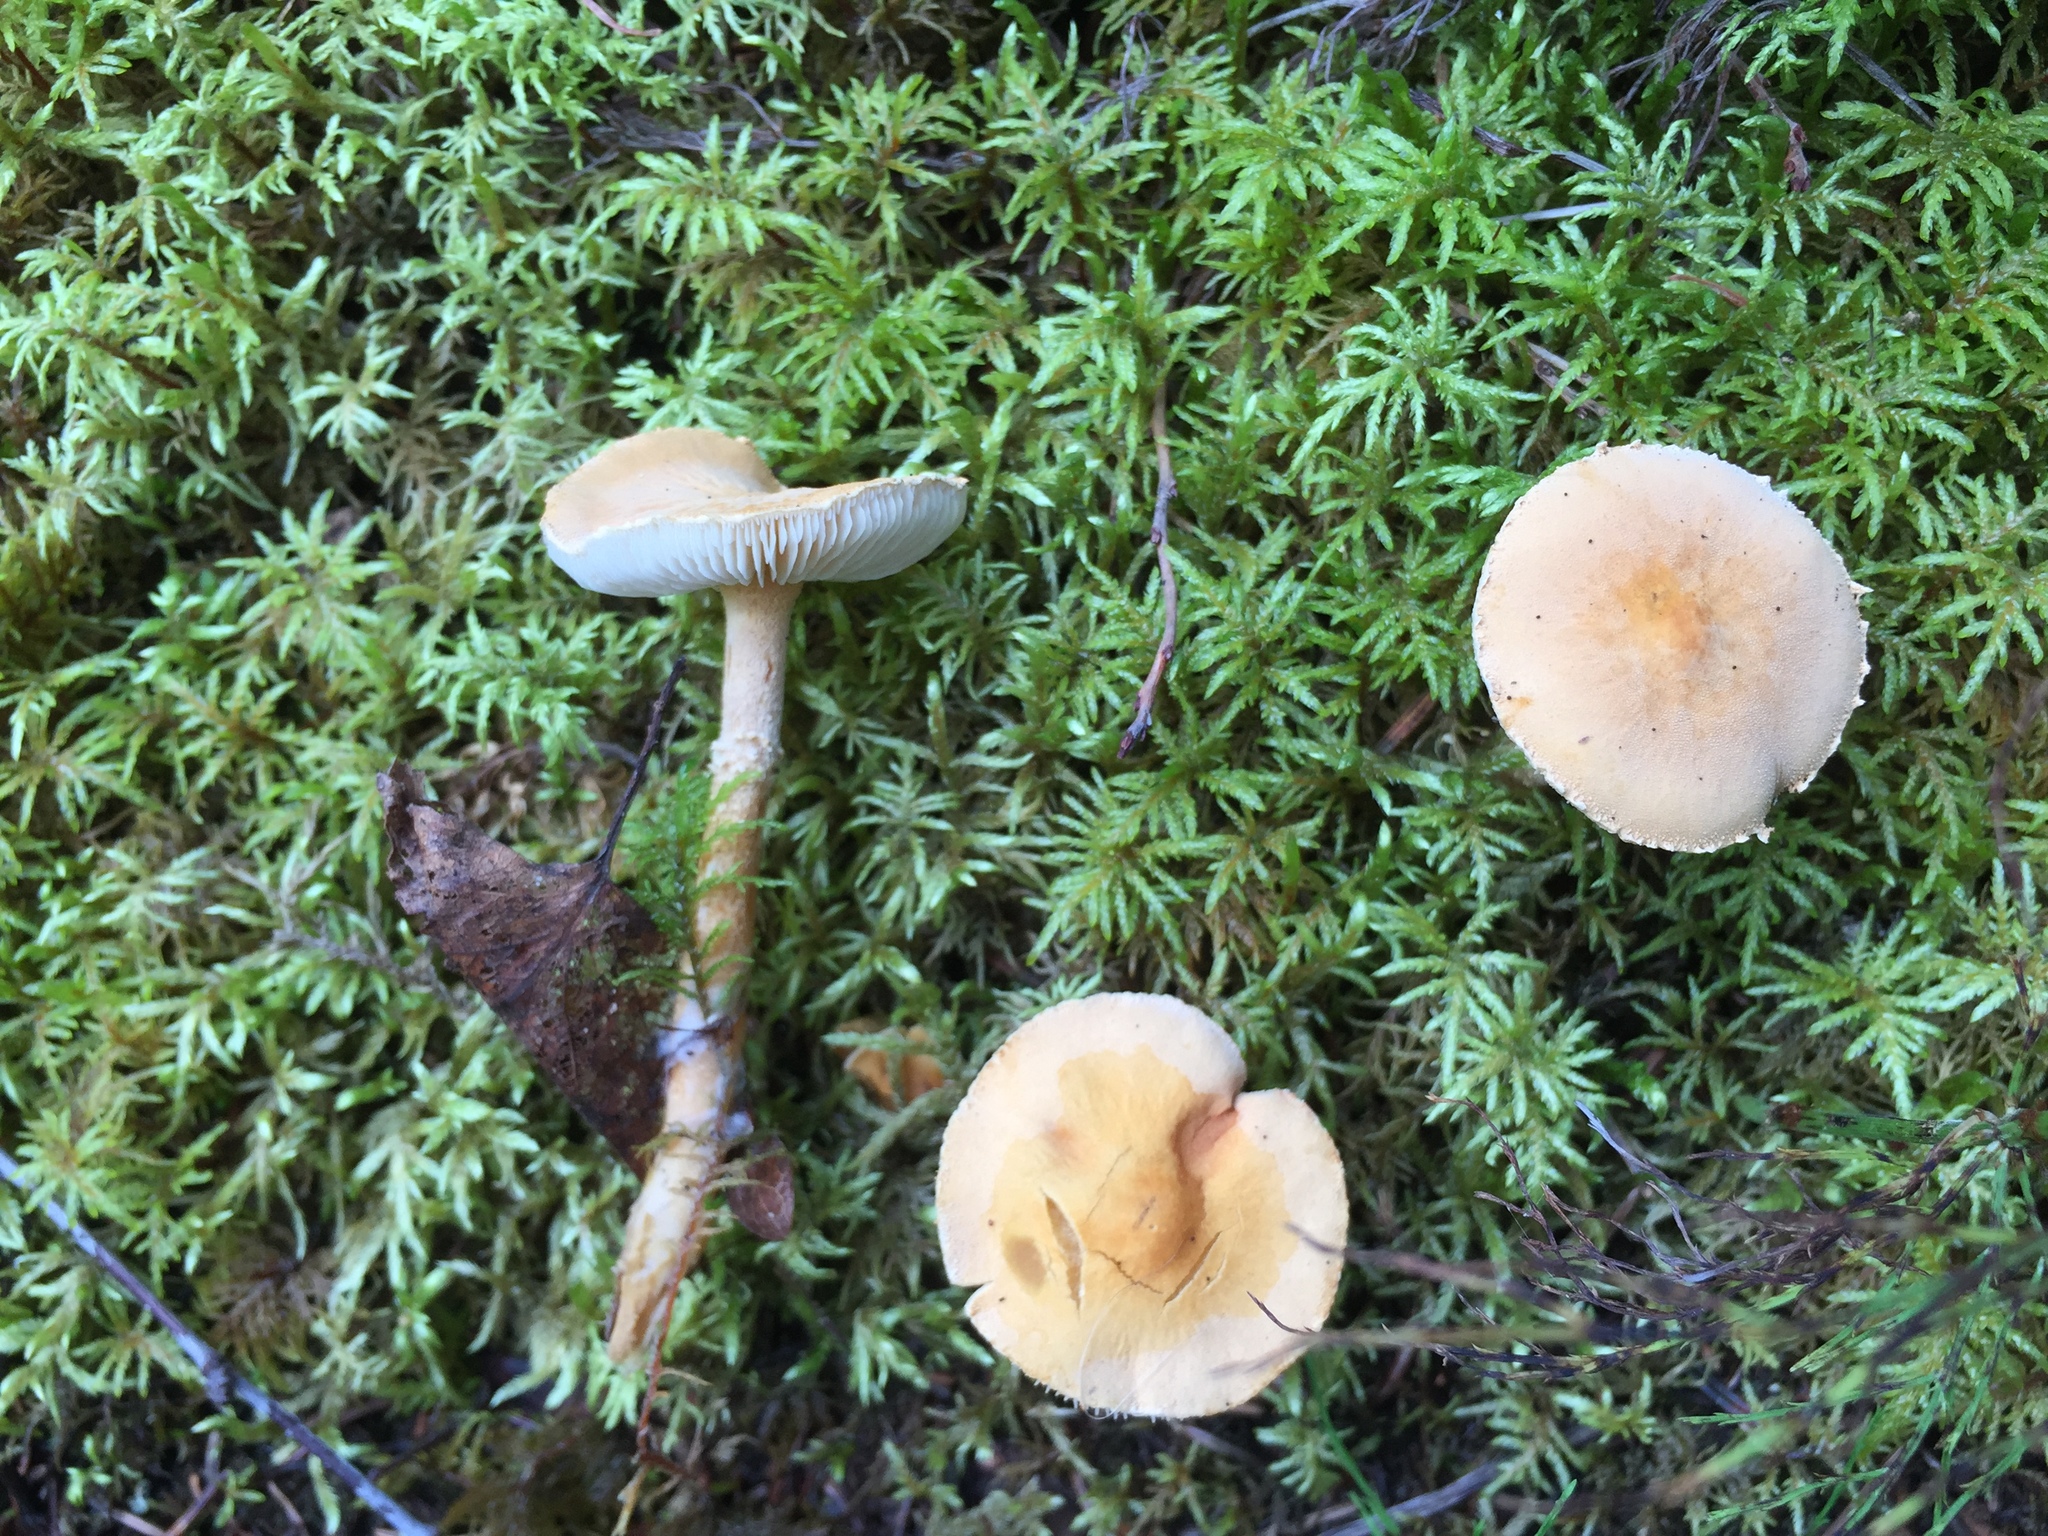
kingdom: Fungi
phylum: Basidiomycota
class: Agaricomycetes
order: Agaricales
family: Tricholomataceae
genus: Cystoderma
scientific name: Cystoderma carcharias
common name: Pearly powdercap
